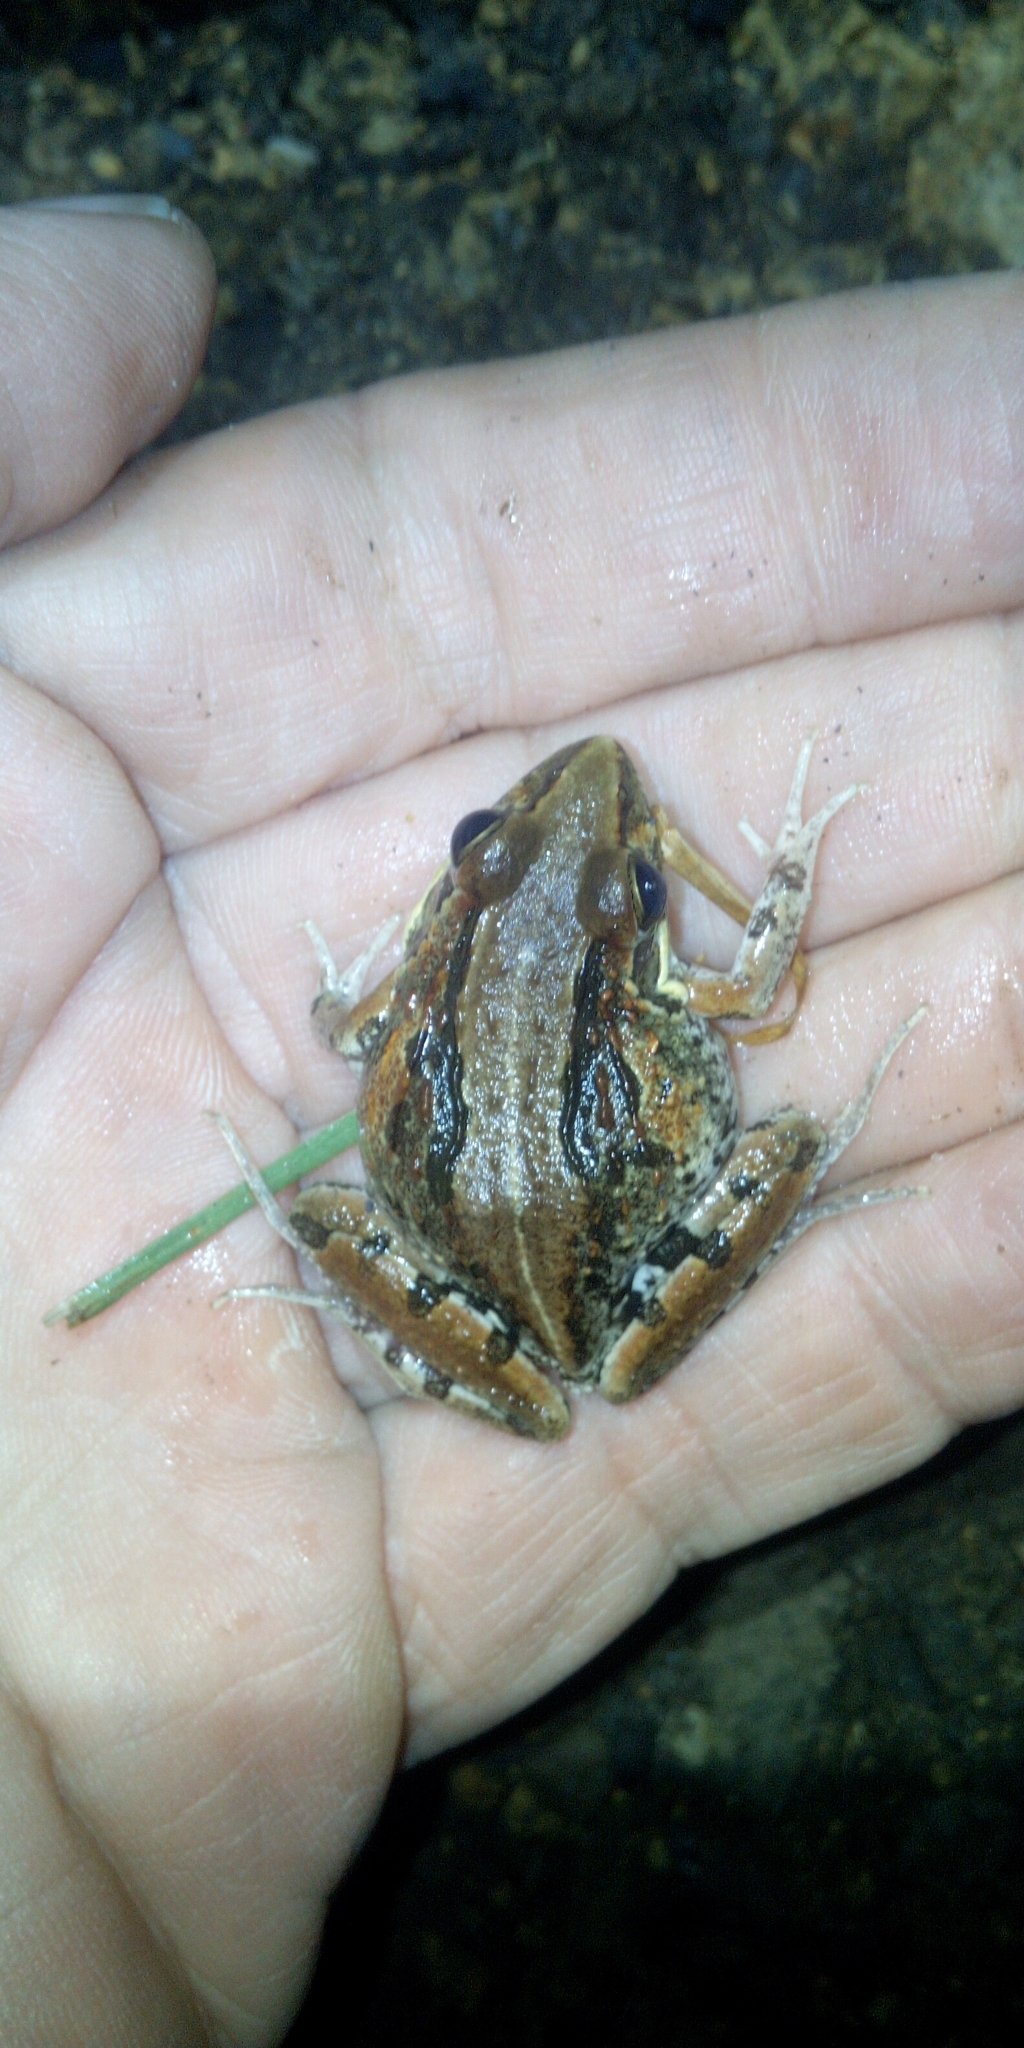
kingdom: Animalia
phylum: Chordata
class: Amphibia
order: Anura
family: Pyxicephalidae
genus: Strongylopus
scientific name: Strongylopus grayii
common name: Gray's stream frog
